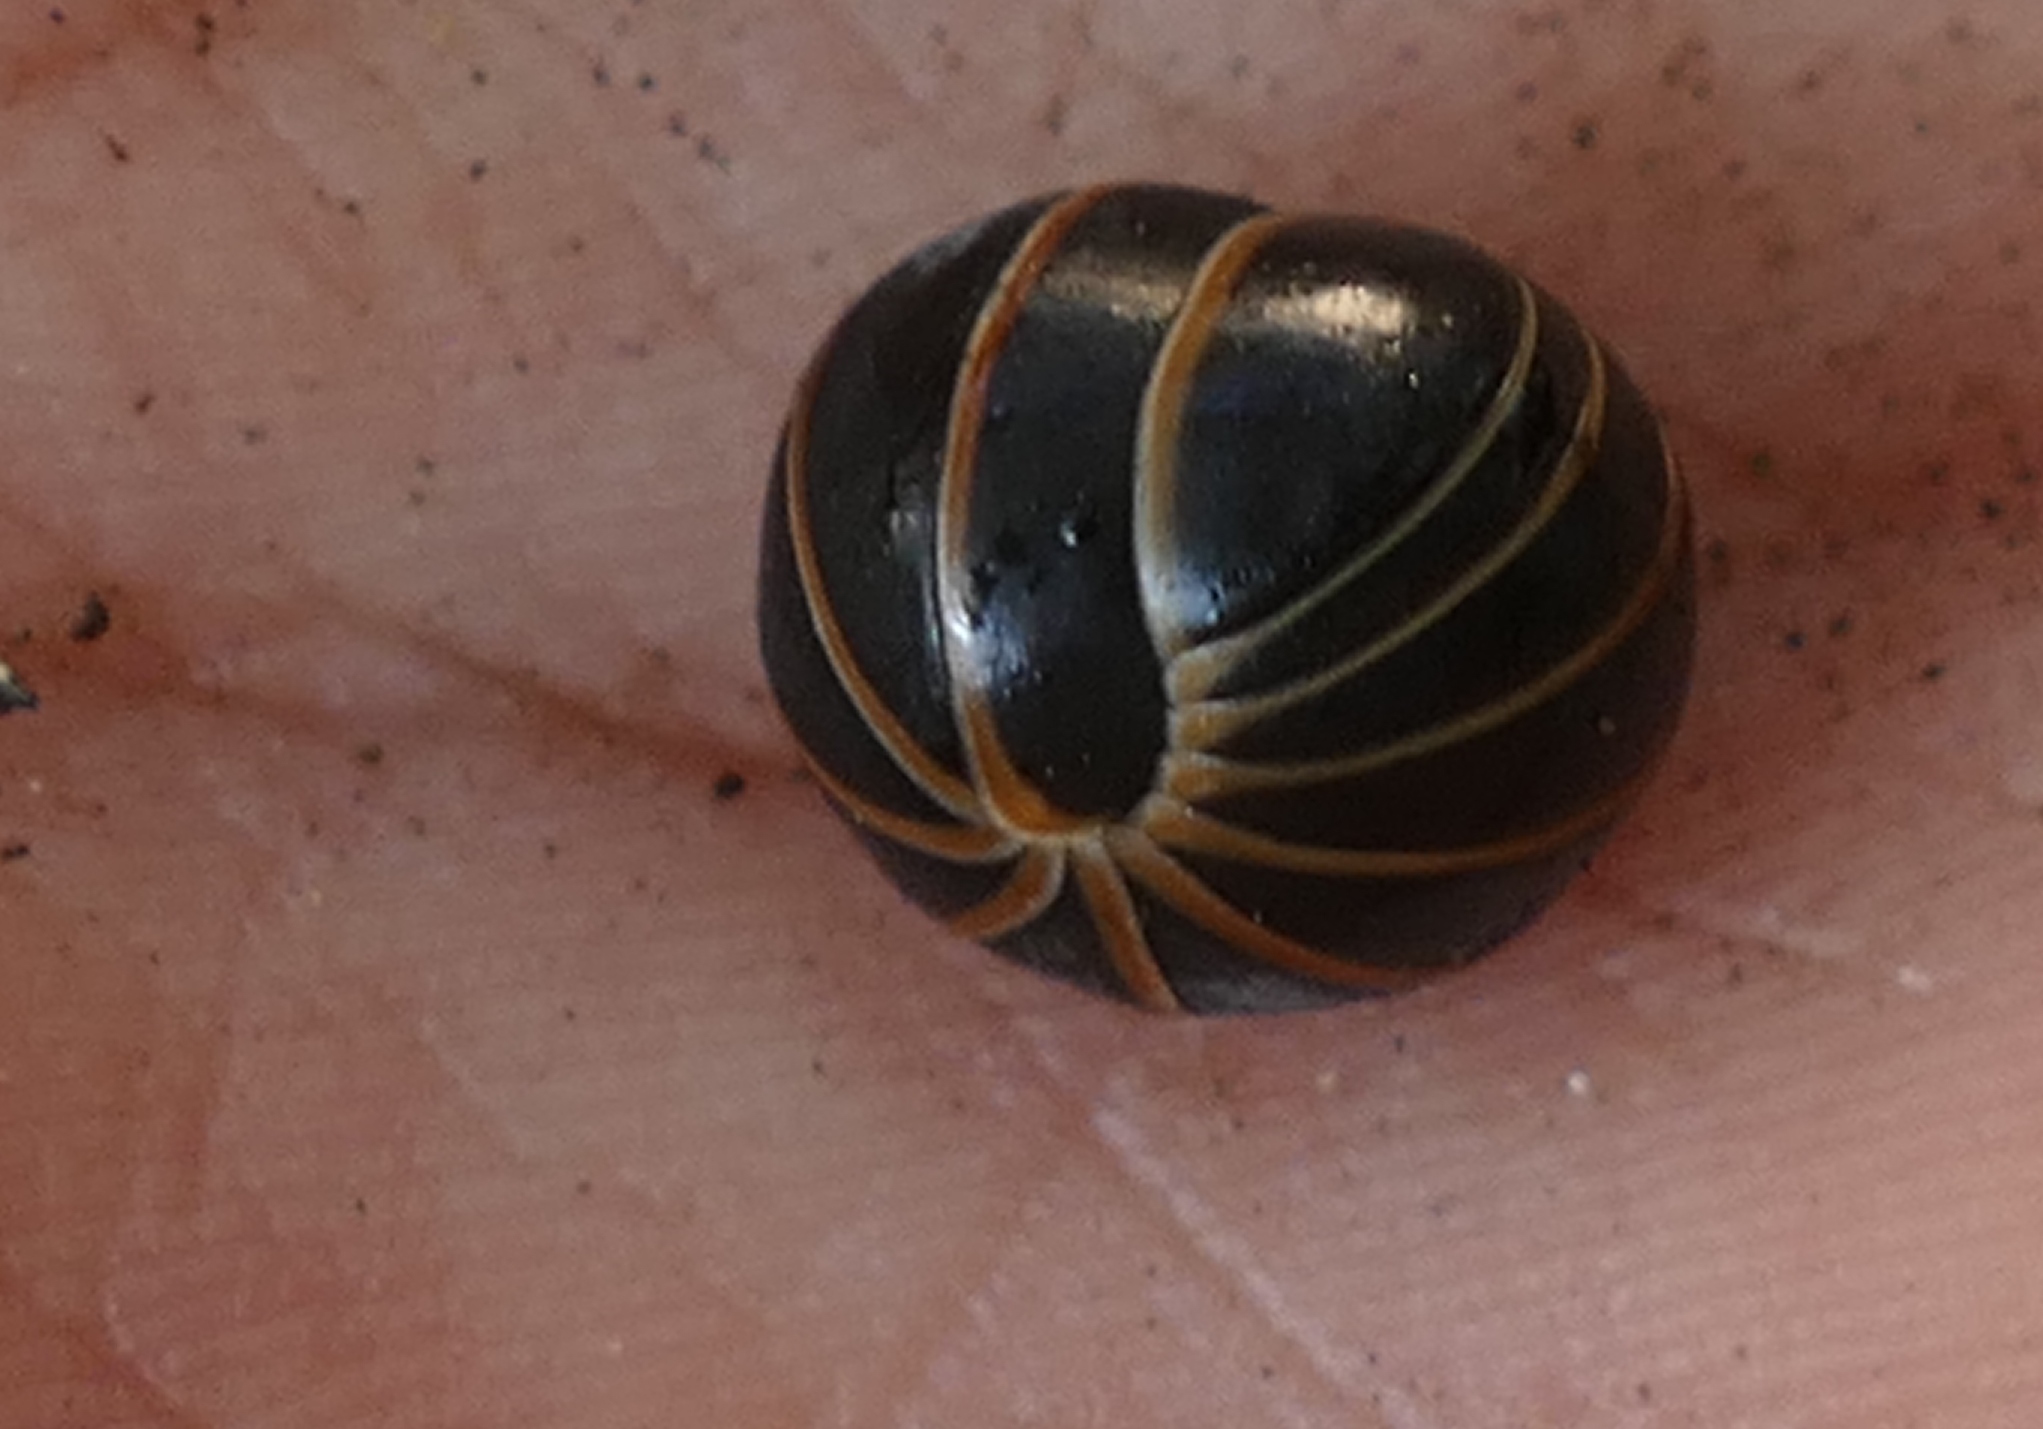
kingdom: Animalia
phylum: Arthropoda
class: Diplopoda
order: Glomerida
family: Glomeridae
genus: Glomeris
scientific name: Glomeris marginata
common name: Bordered pill millipede
